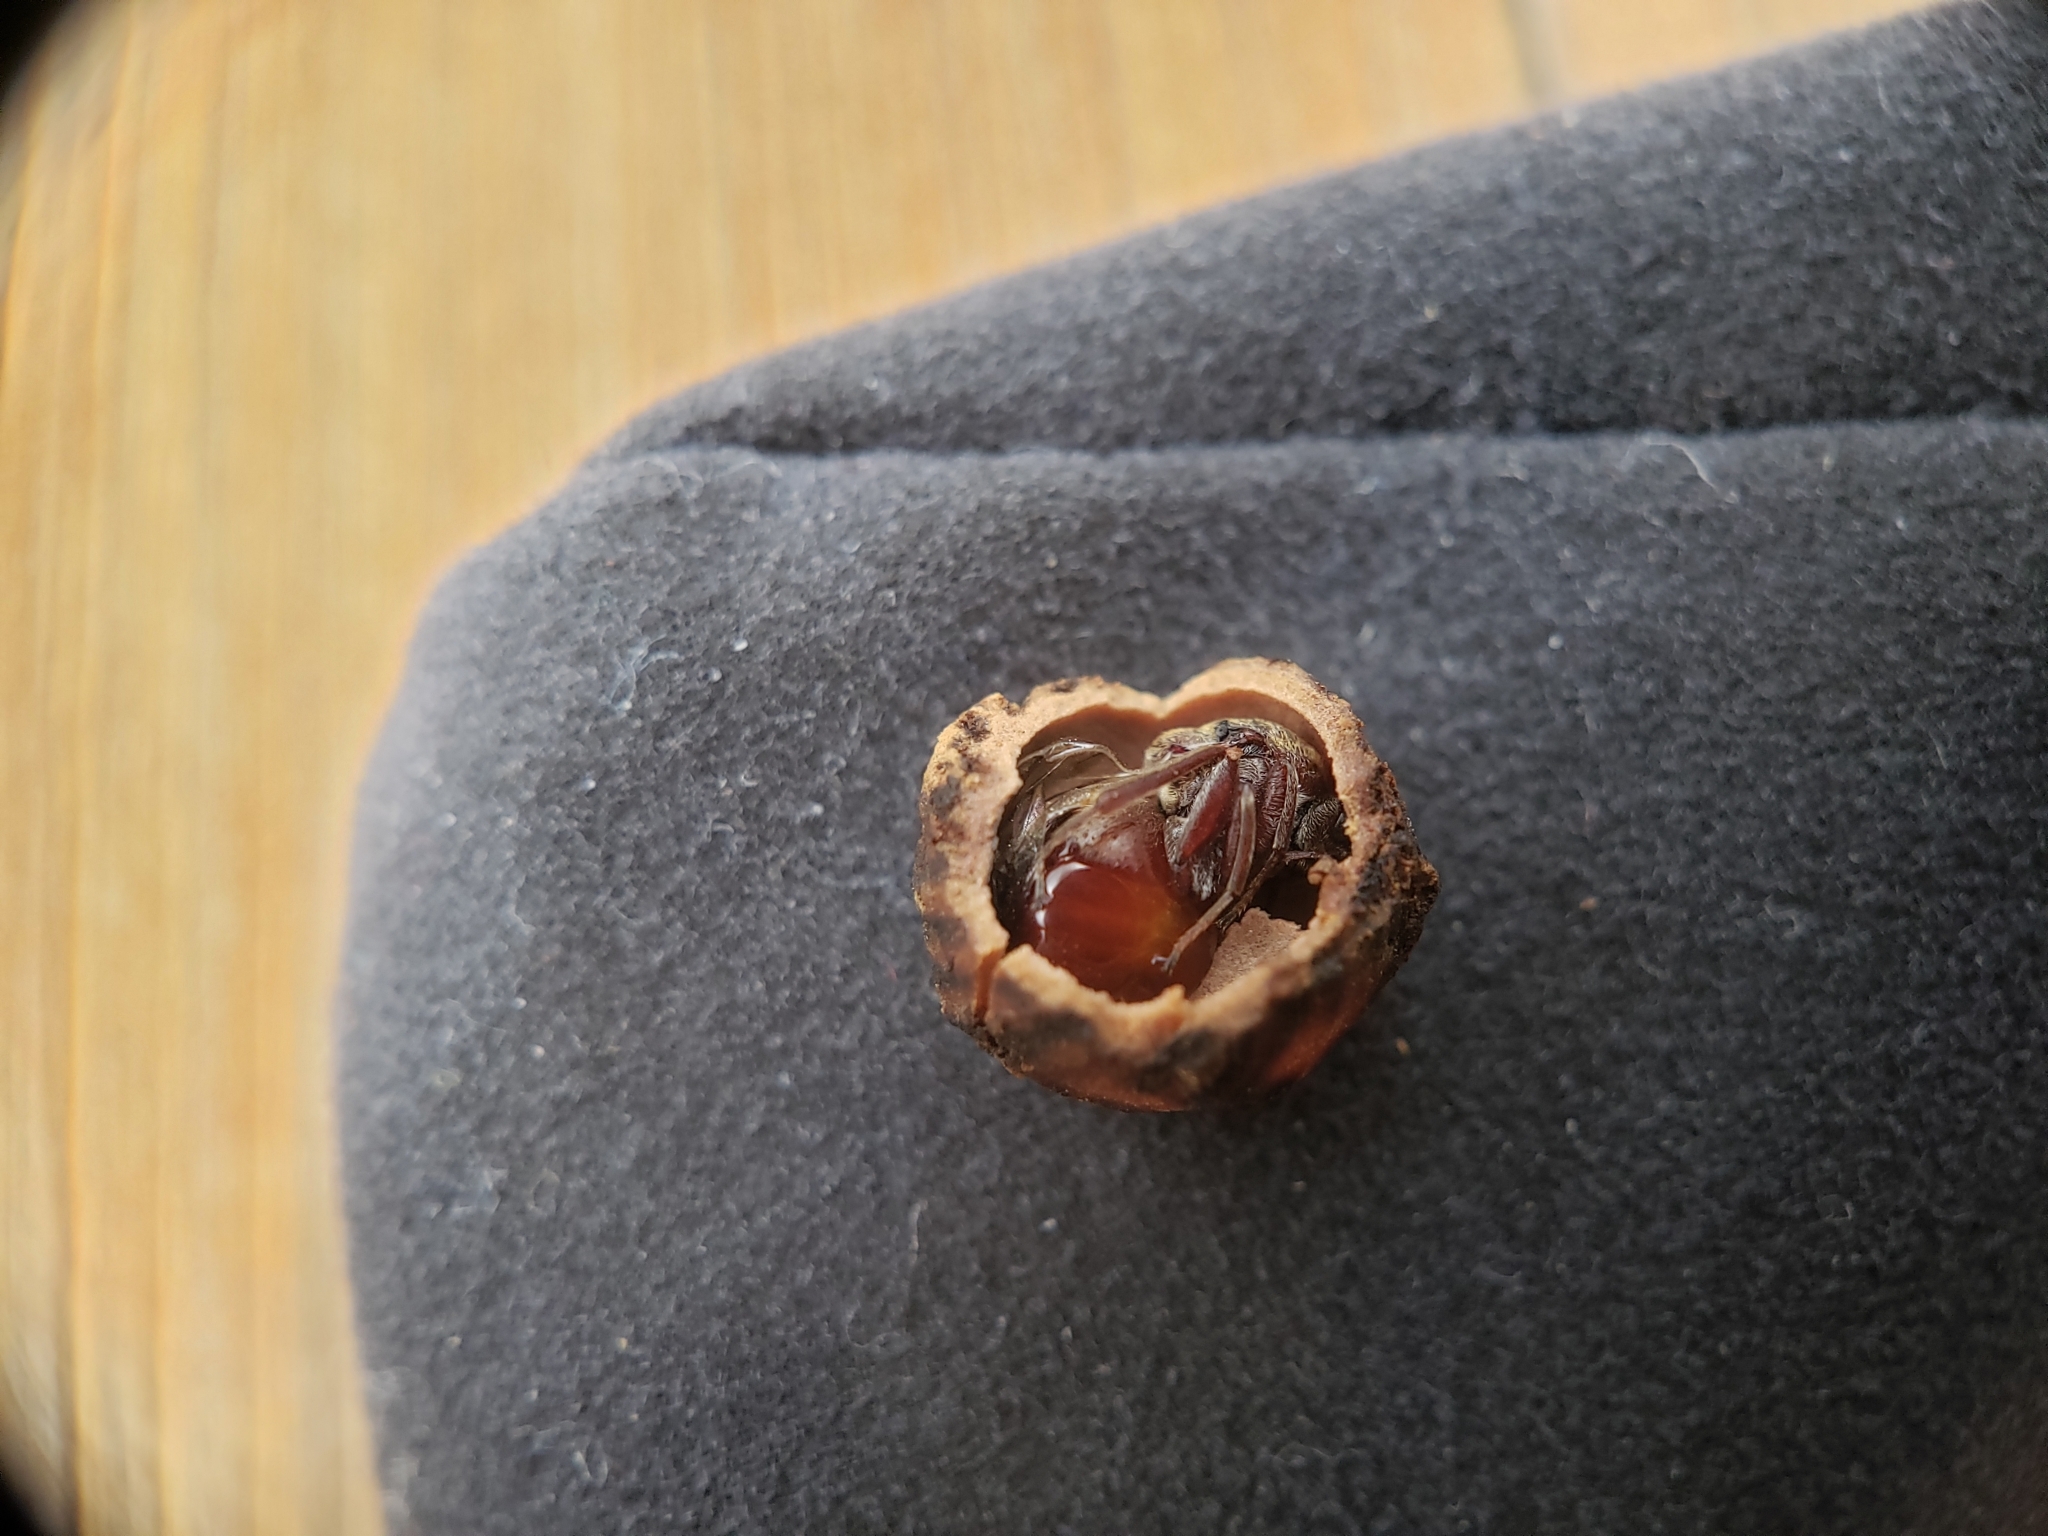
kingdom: Animalia
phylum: Arthropoda
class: Insecta
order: Hymenoptera
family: Cynipidae
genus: Holocynips
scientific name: Holocynips
